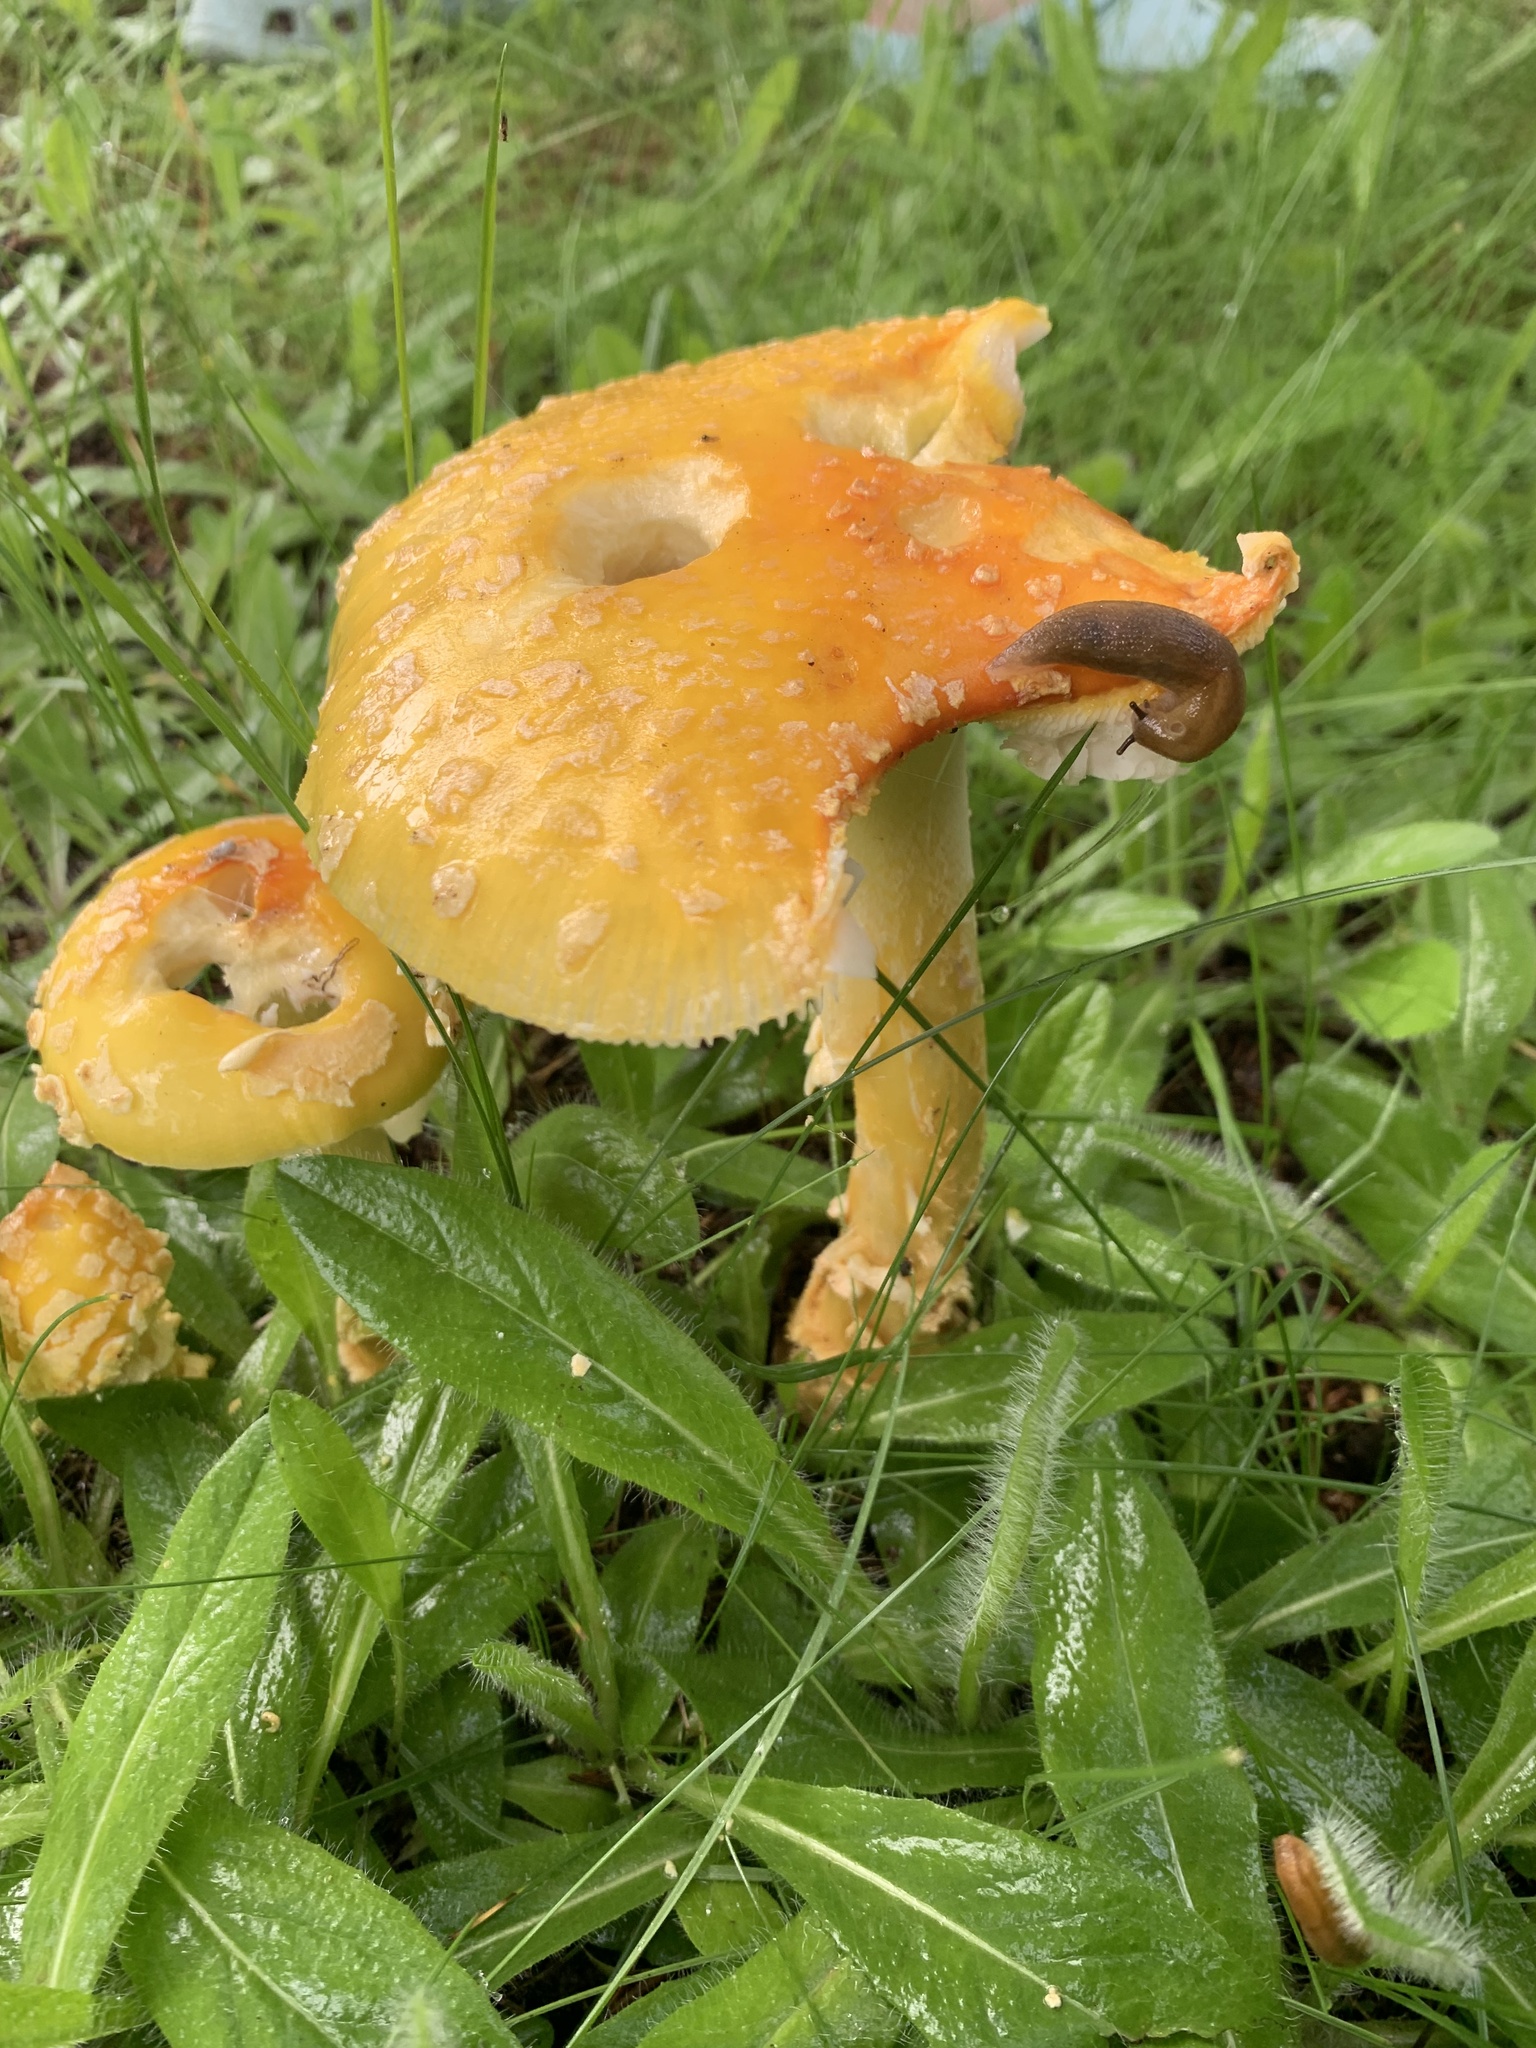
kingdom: Fungi
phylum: Basidiomycota
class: Agaricomycetes
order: Agaricales
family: Amanitaceae
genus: Amanita
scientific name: Amanita muscaria
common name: Fly agaric
